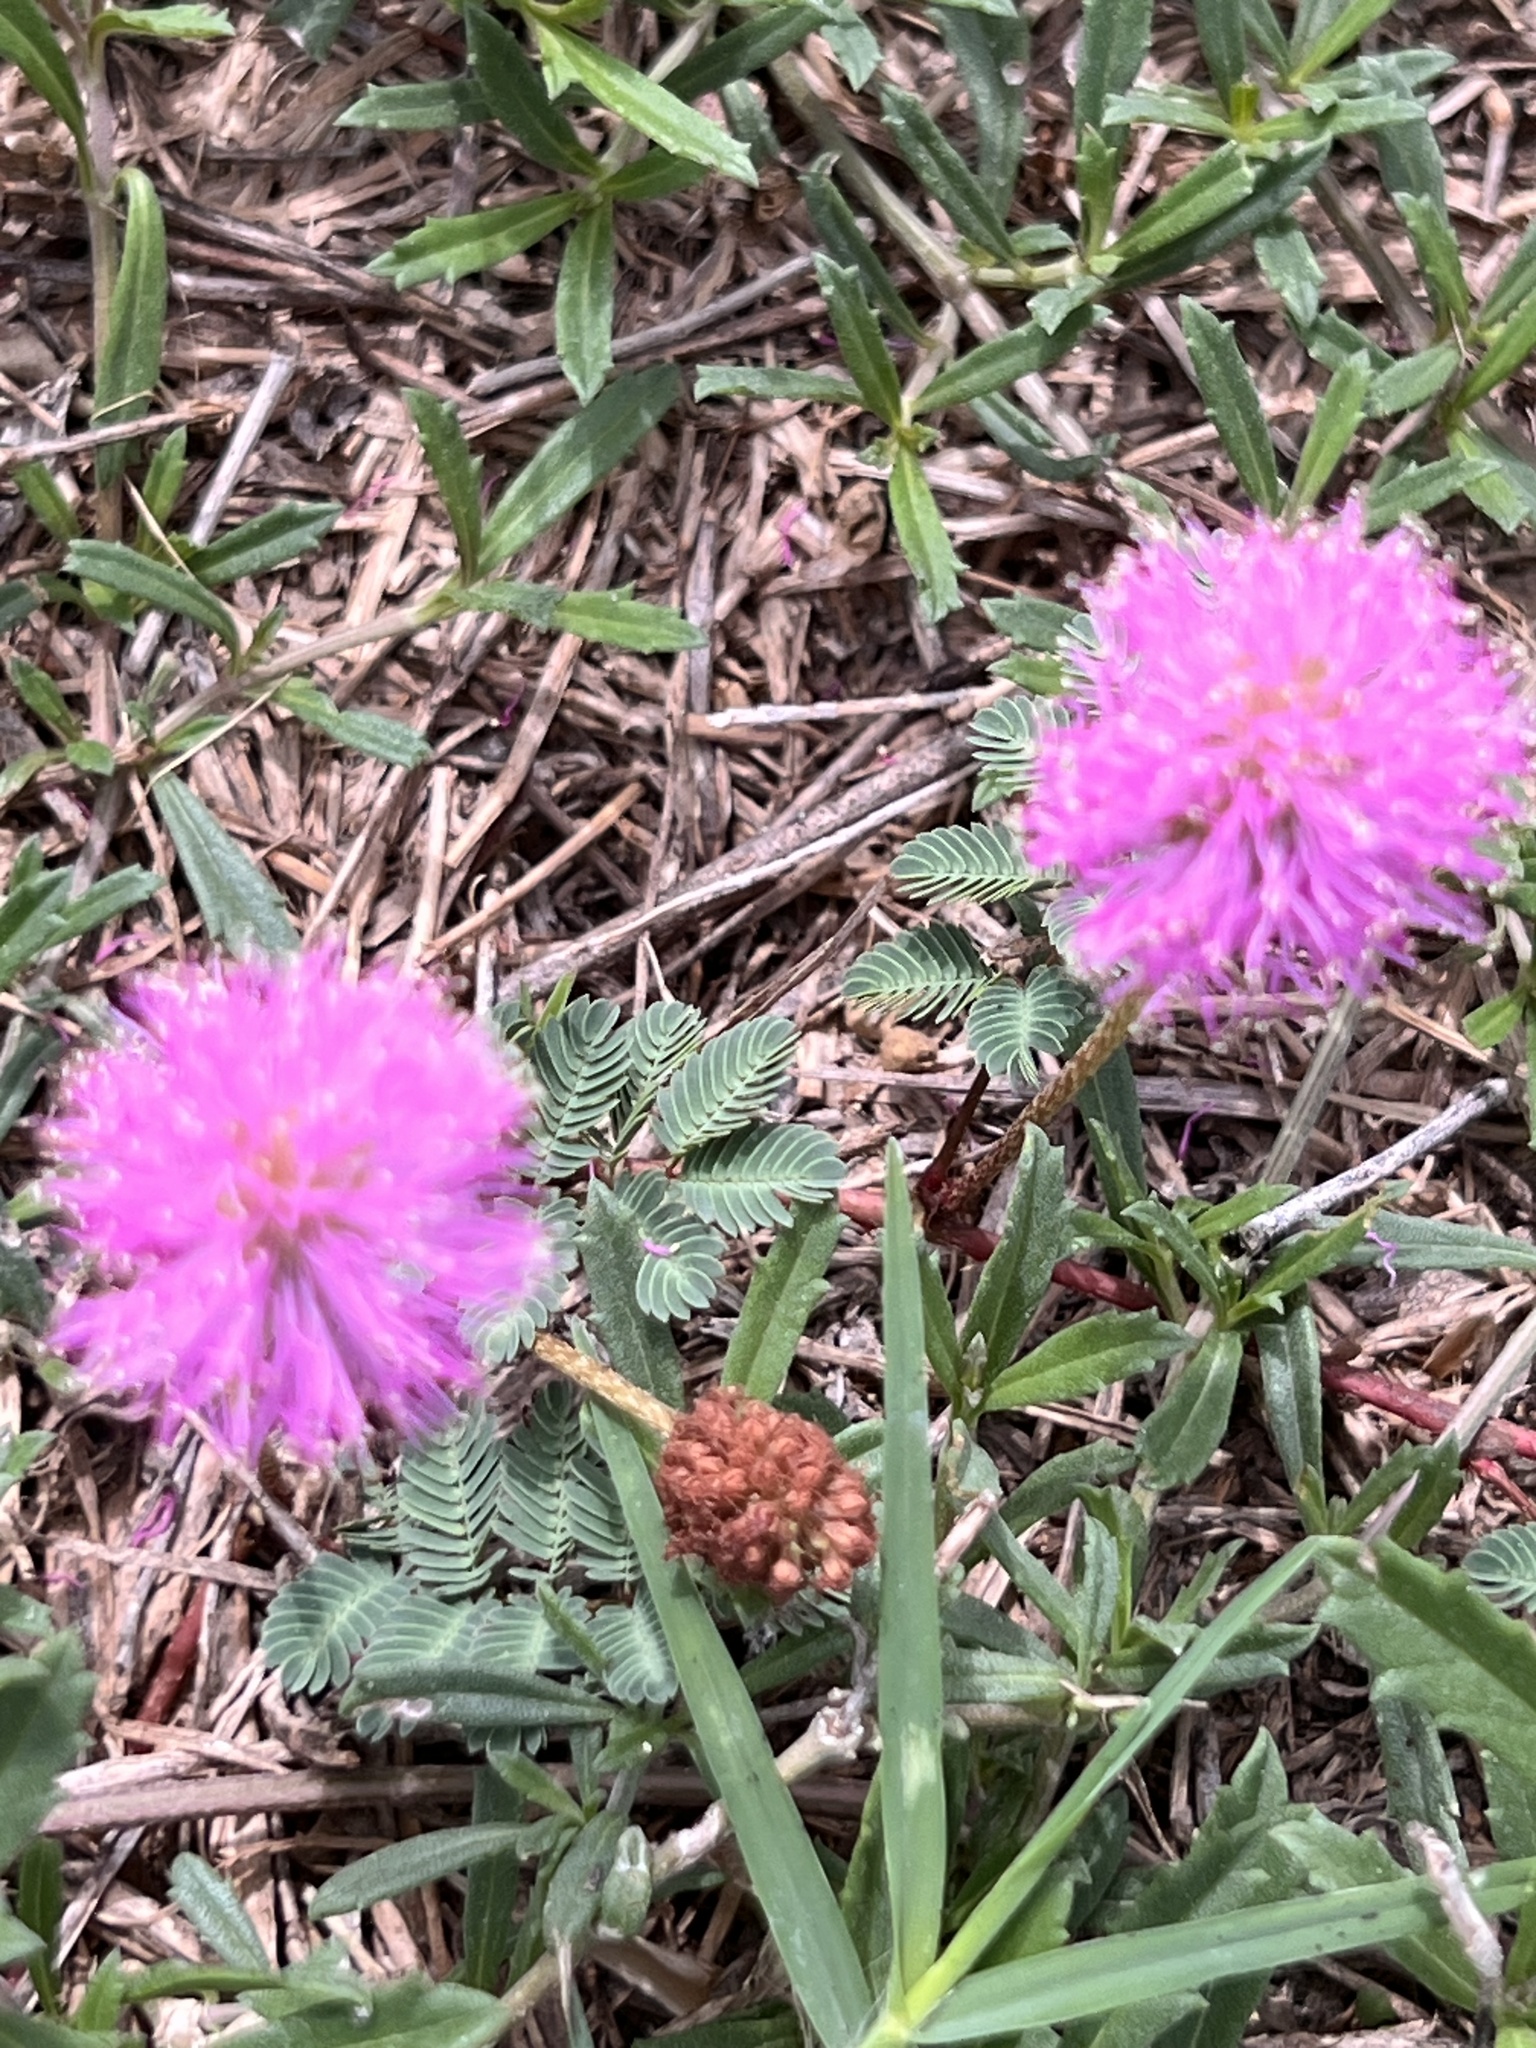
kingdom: Plantae
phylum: Tracheophyta
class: Magnoliopsida
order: Fabales
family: Fabaceae
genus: Mimosa
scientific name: Mimosa strigillosa
